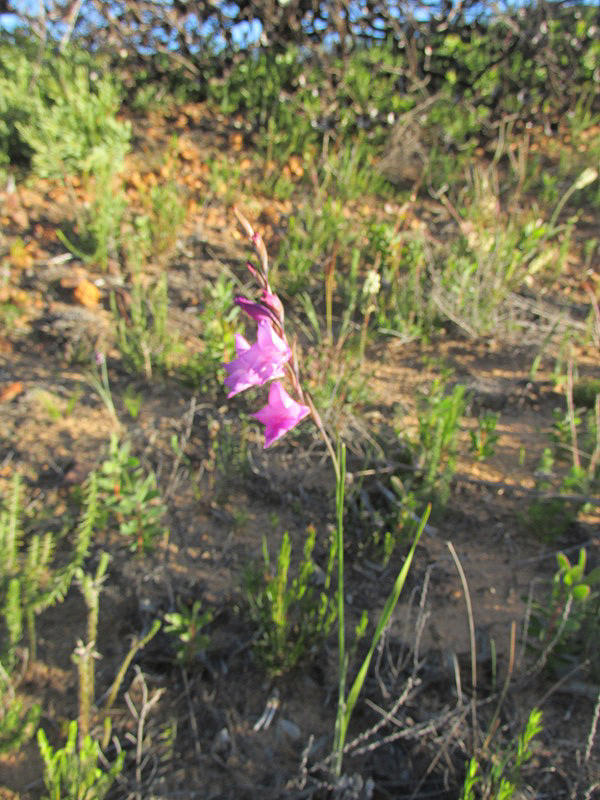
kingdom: Plantae
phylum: Tracheophyta
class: Liliopsida
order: Asparagales
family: Iridaceae
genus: Gladiolus
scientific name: Gladiolus hirsutus
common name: Small pink afrikaner
